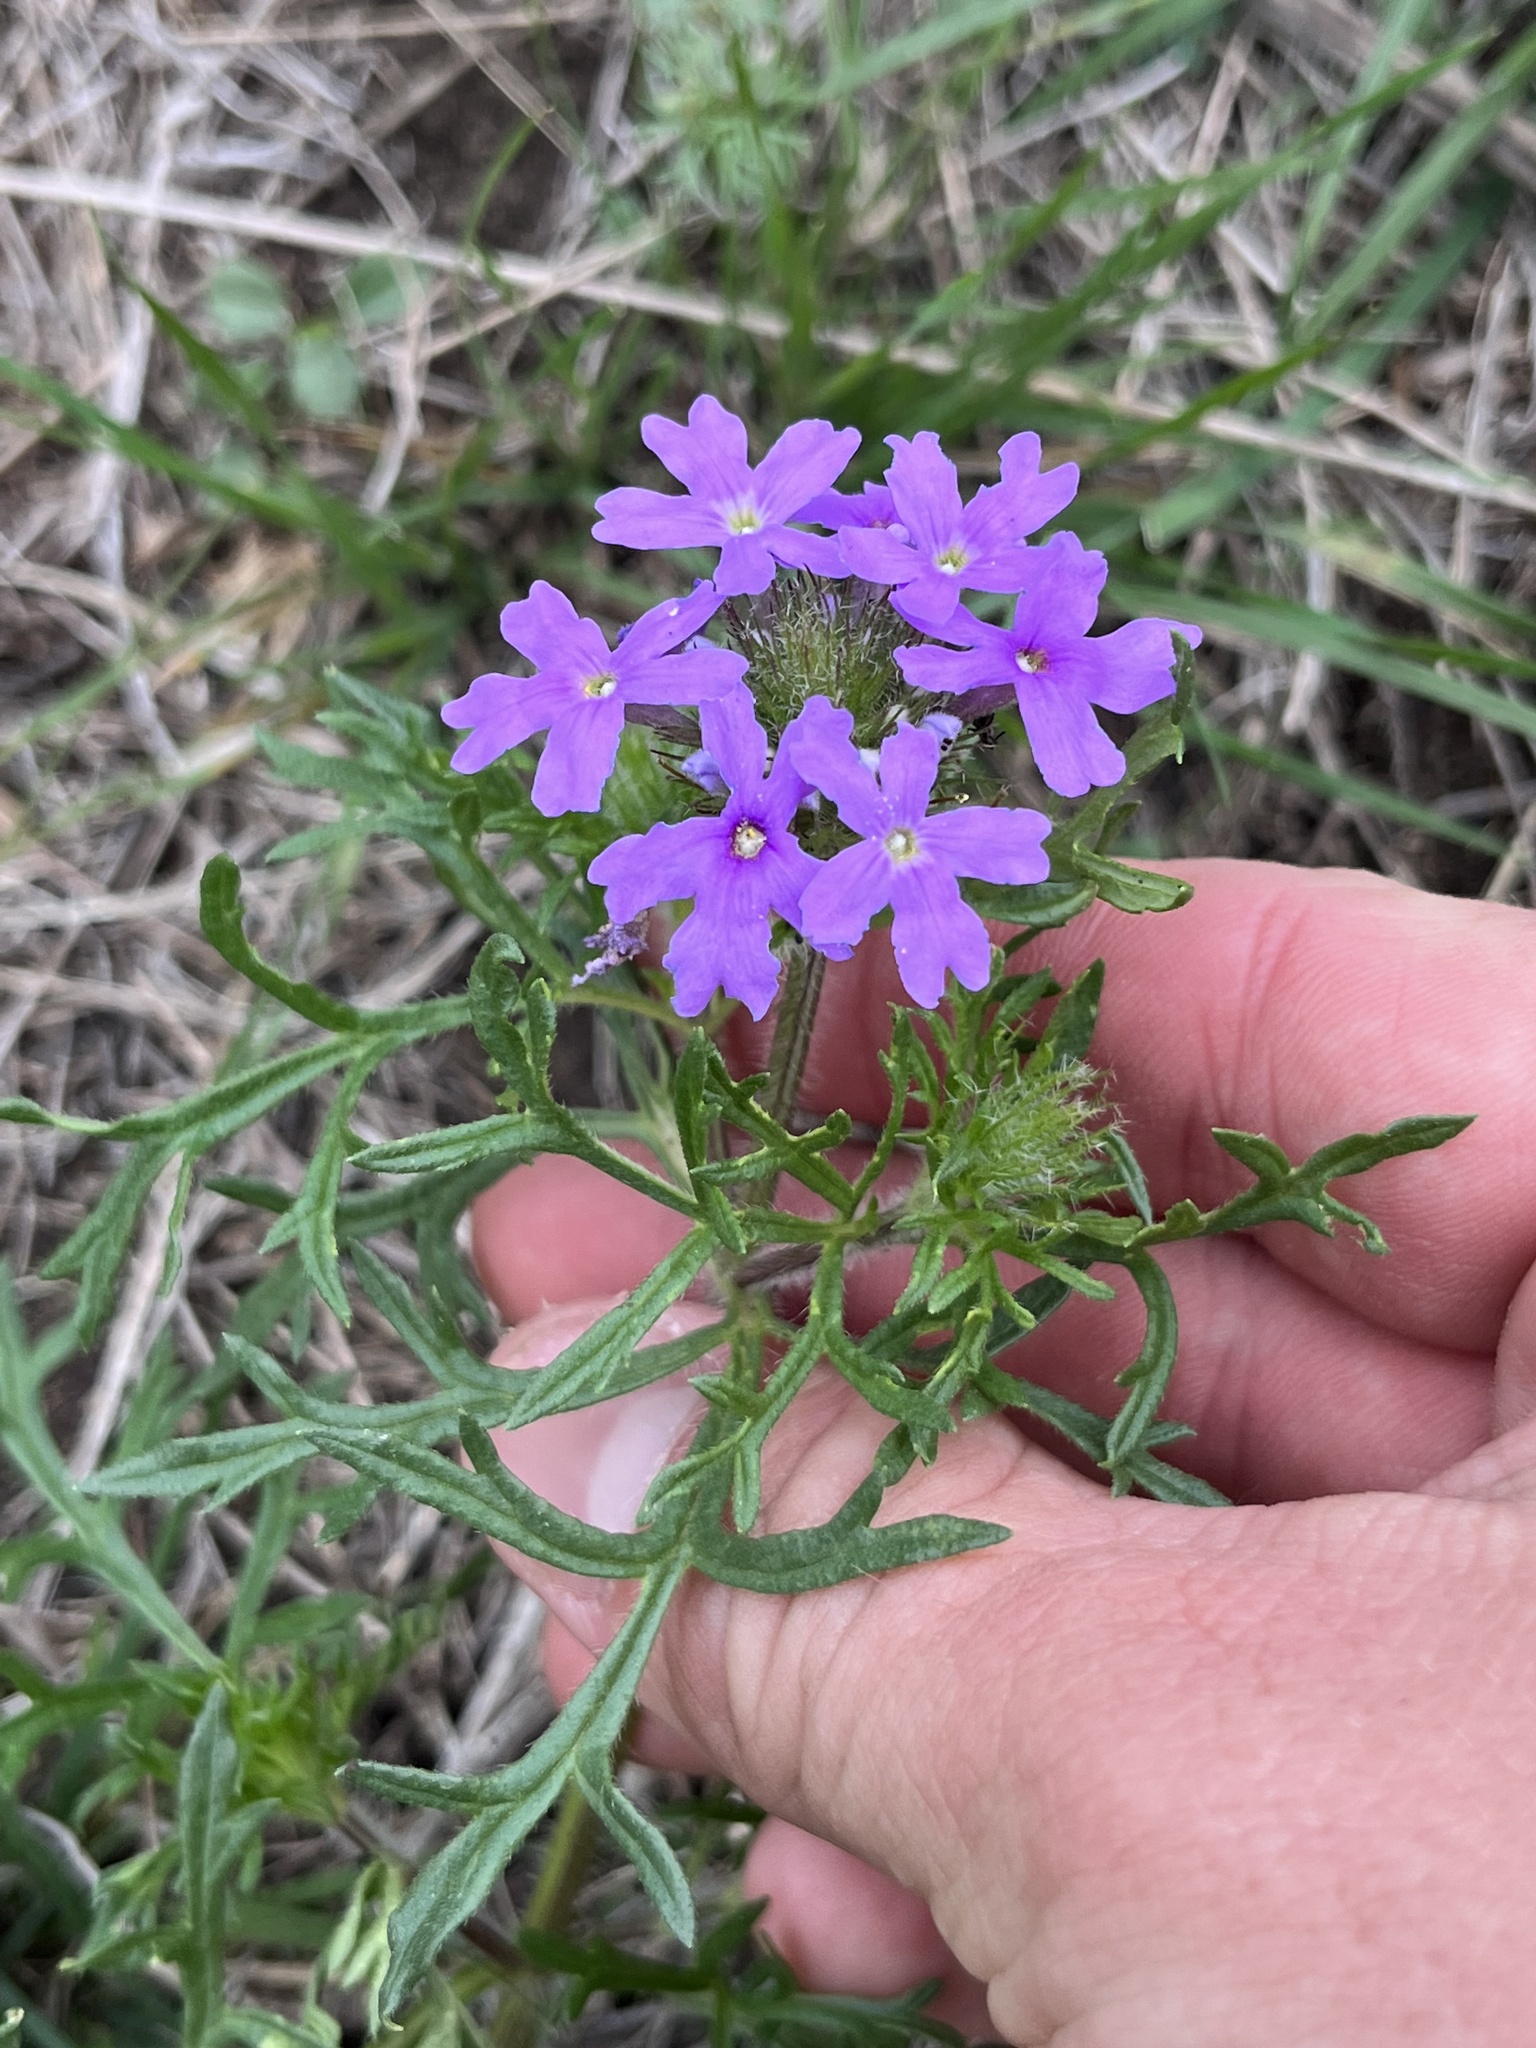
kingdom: Plantae
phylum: Tracheophyta
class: Magnoliopsida
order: Lamiales
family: Verbenaceae
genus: Verbena
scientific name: Verbena bipinnatifida
